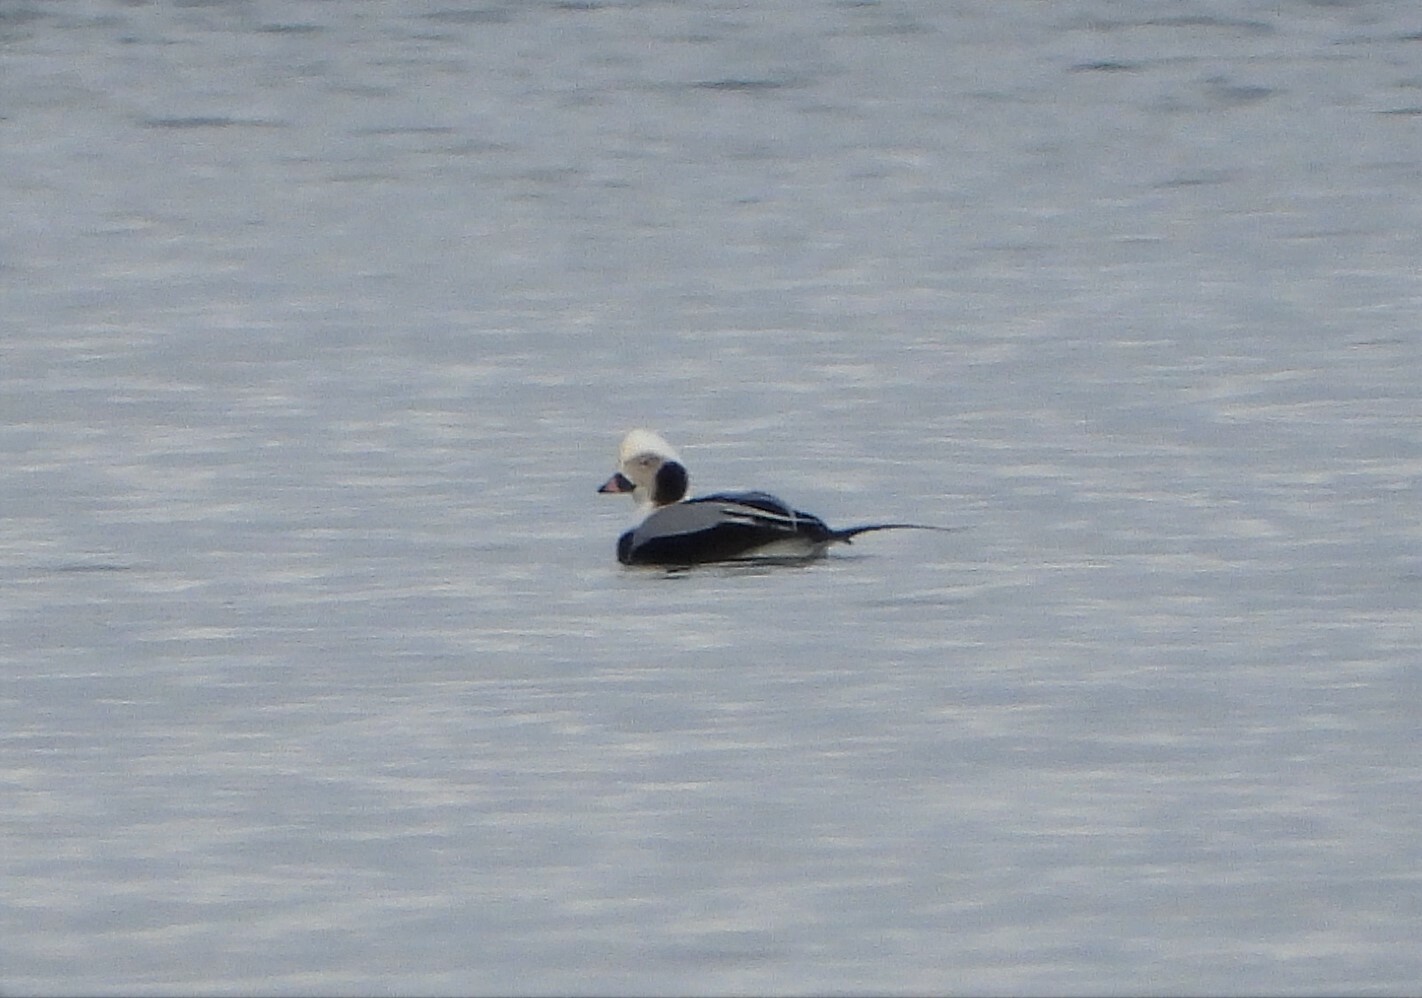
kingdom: Animalia
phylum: Chordata
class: Aves
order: Anseriformes
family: Anatidae
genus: Clangula
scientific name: Clangula hyemalis
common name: Long-tailed duck
